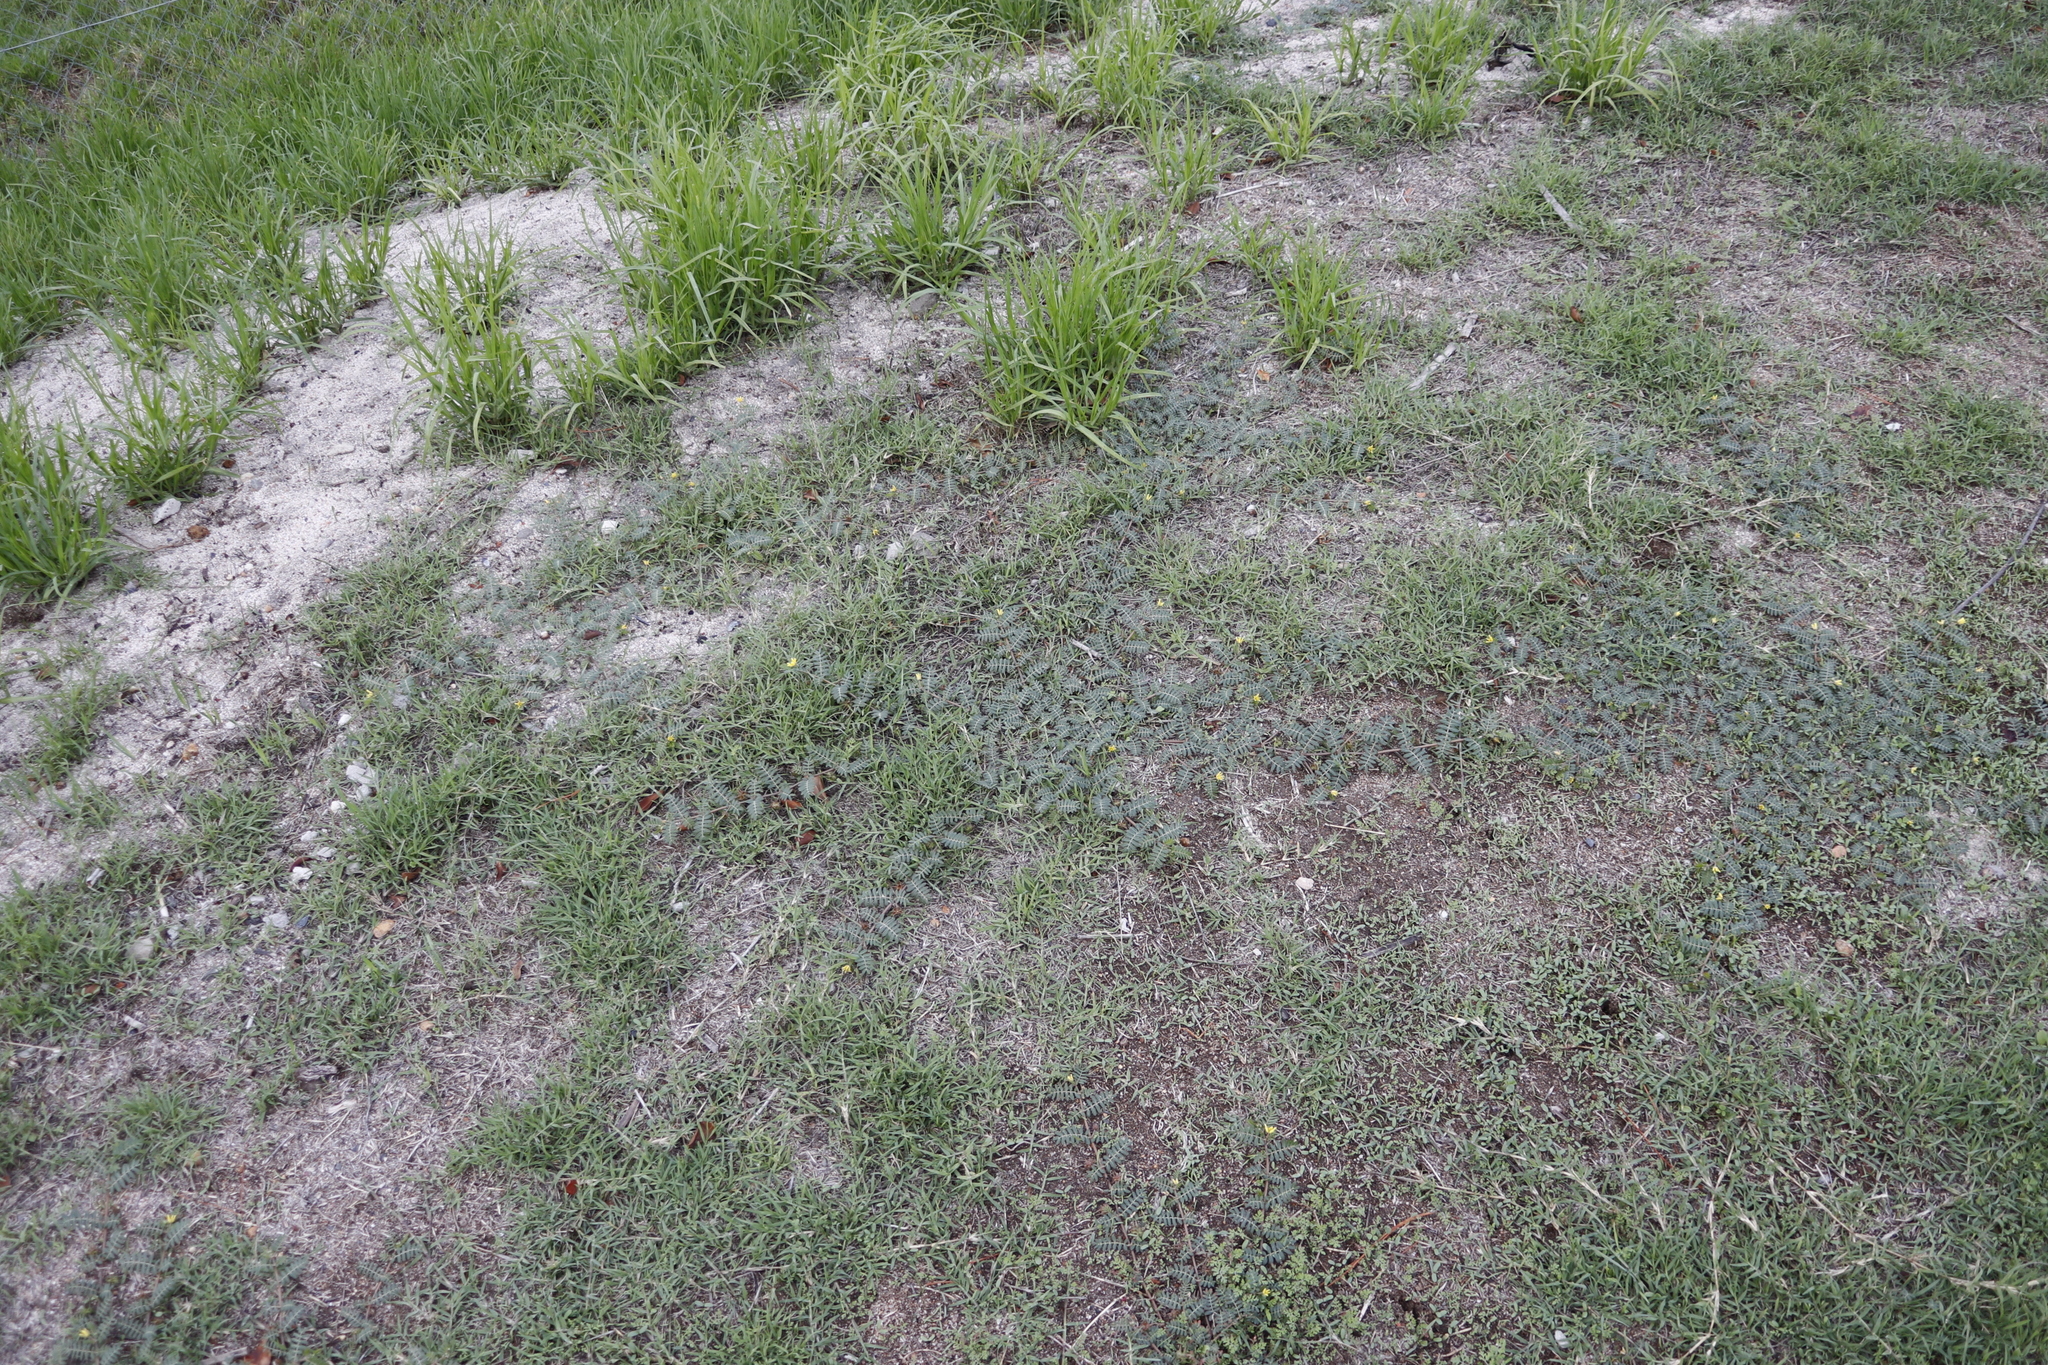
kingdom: Plantae
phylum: Tracheophyta
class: Magnoliopsida
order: Zygophyllales
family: Zygophyllaceae
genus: Tribulus
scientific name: Tribulus terrestris
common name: Puncturevine
